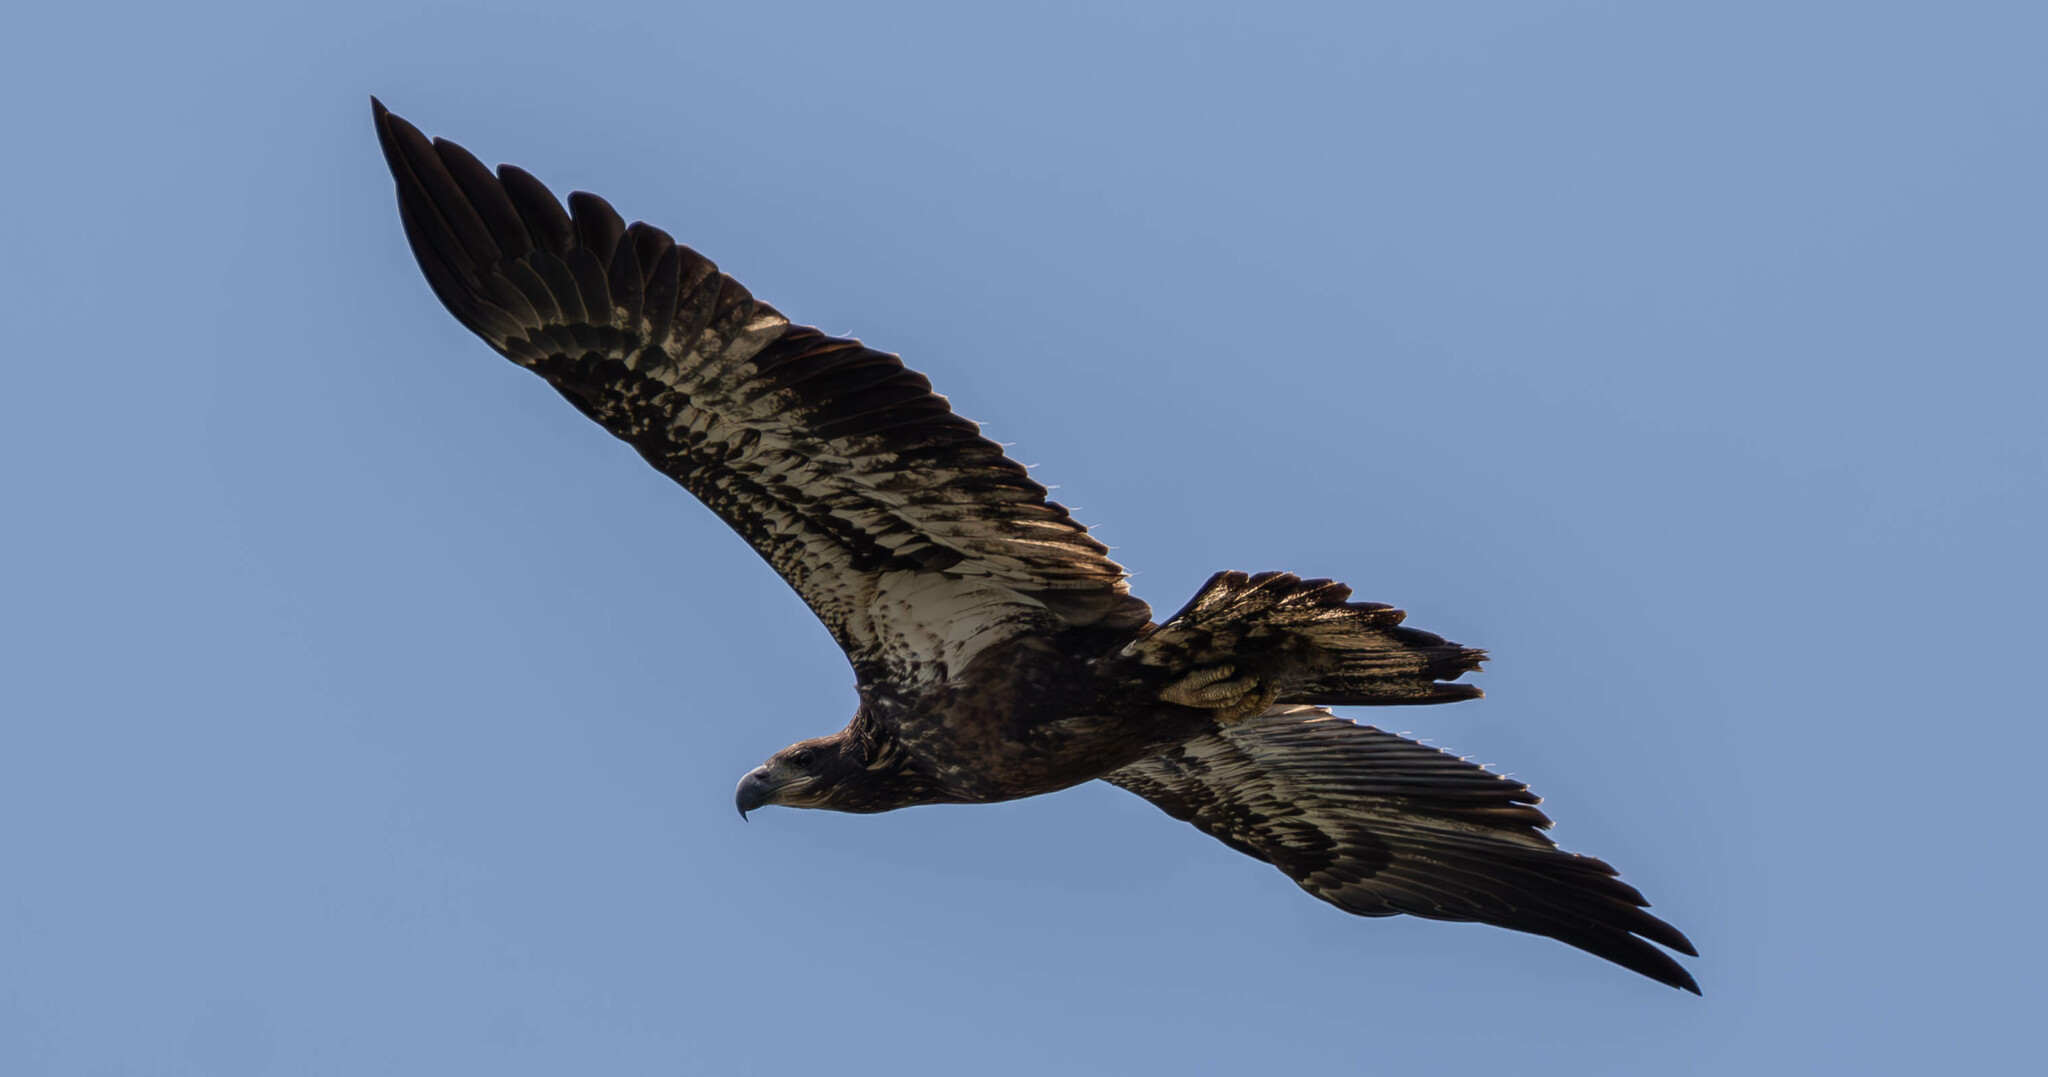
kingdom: Animalia
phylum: Chordata
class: Aves
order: Accipitriformes
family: Accipitridae
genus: Haliaeetus
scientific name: Haliaeetus leucocephalus
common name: Bald eagle
